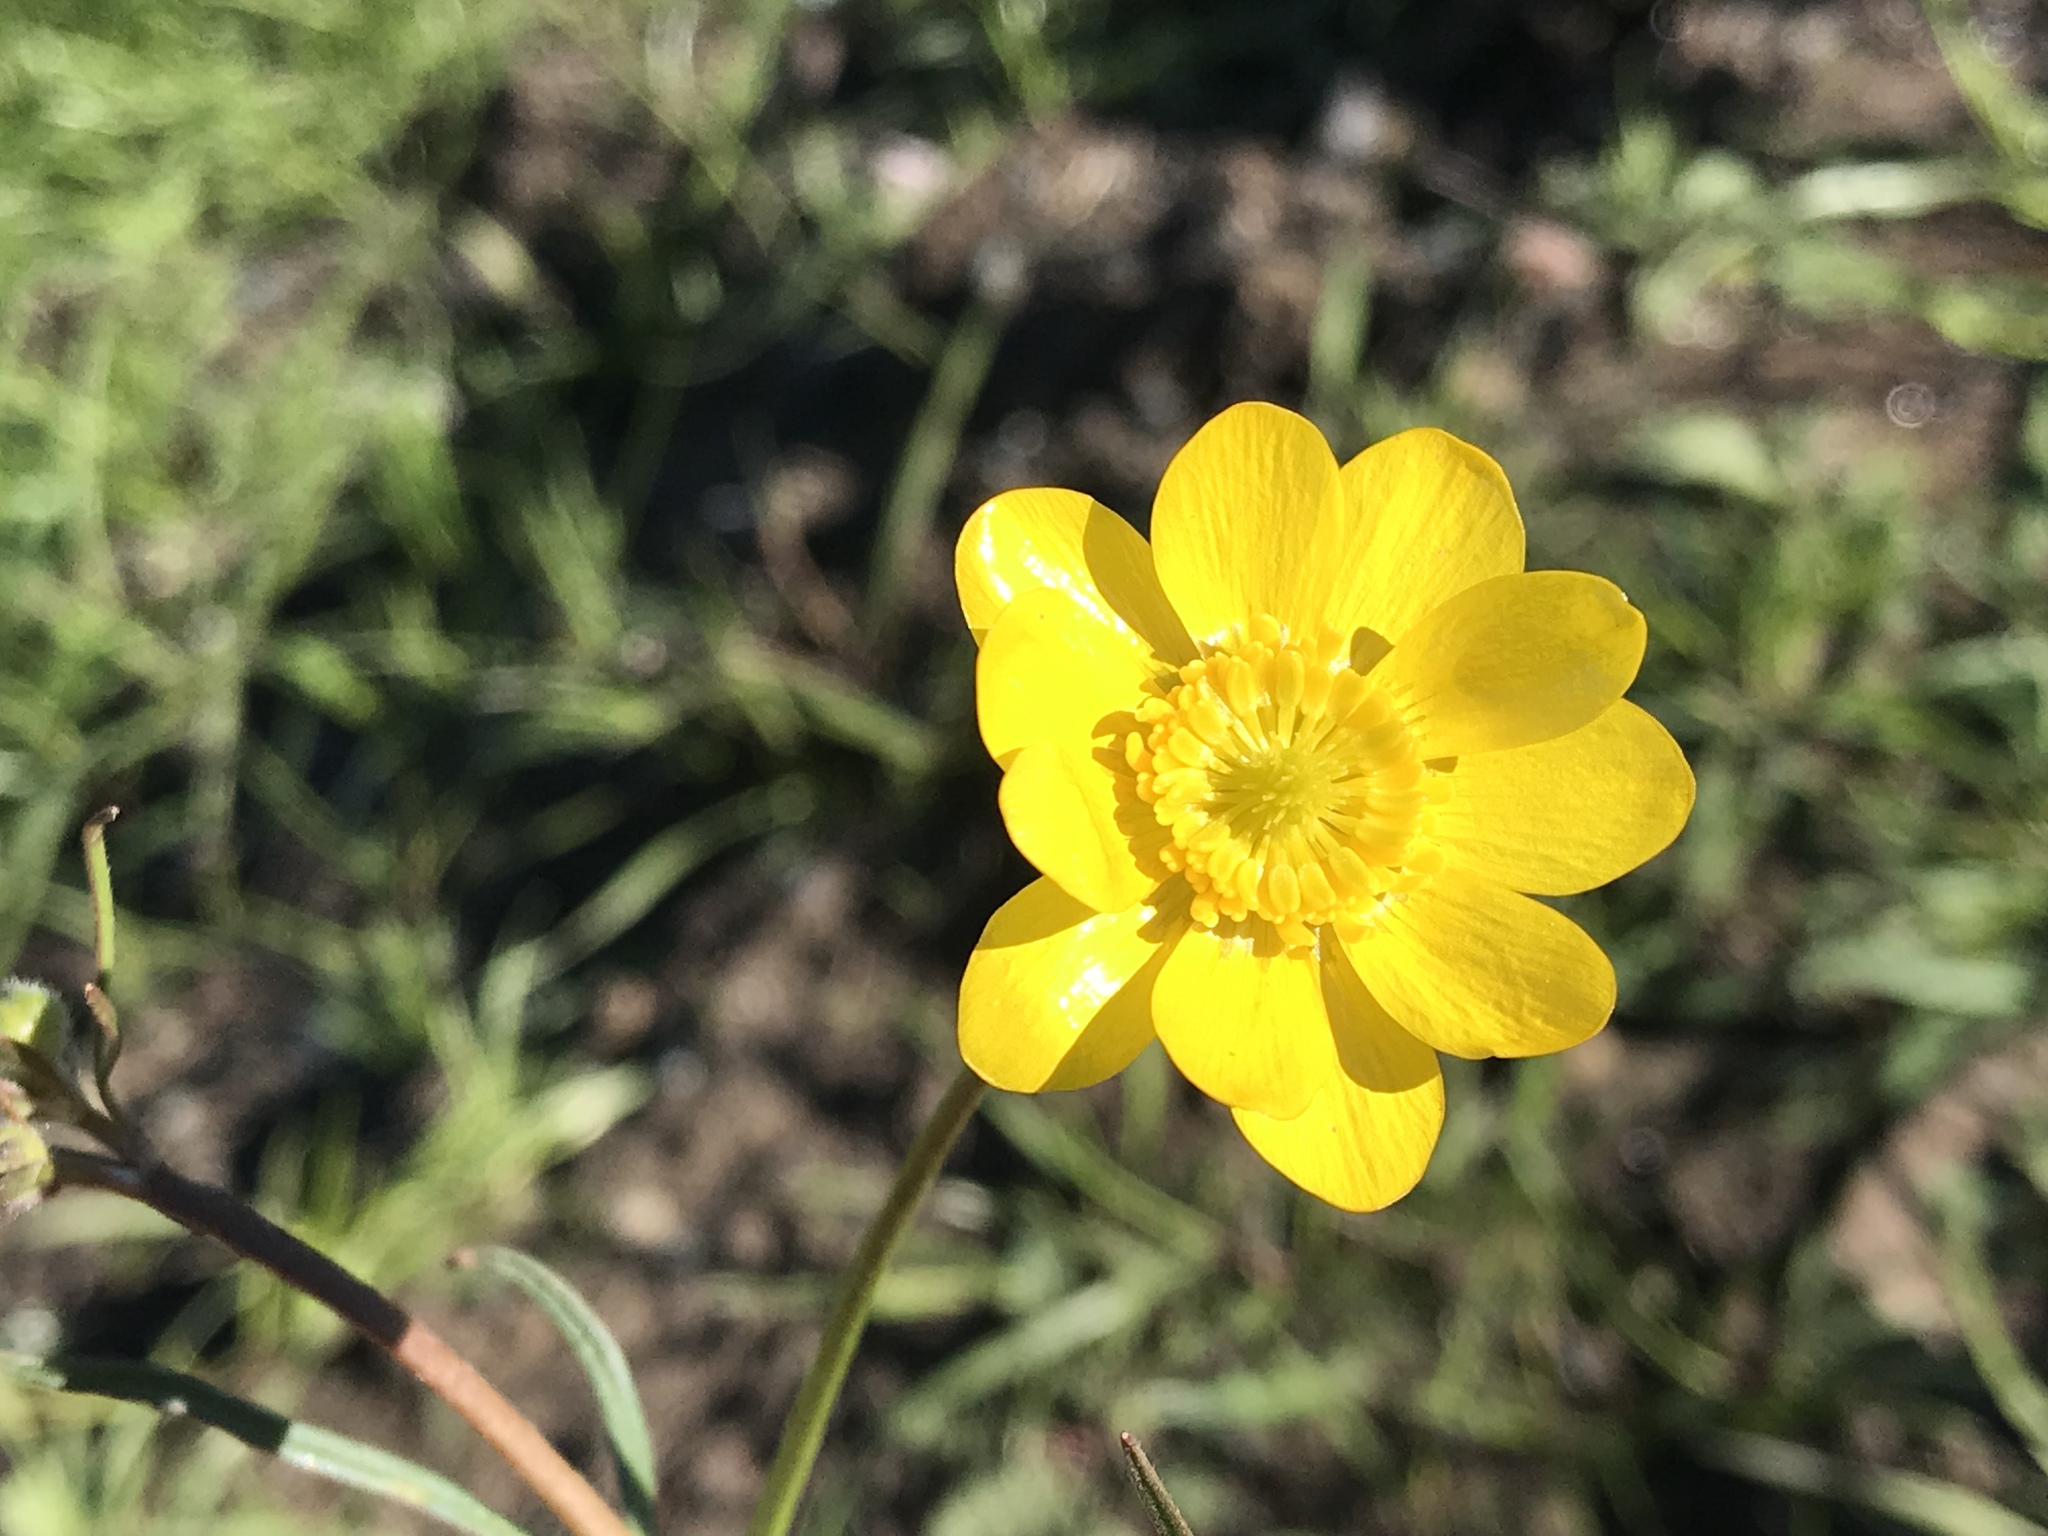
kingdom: Plantae
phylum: Tracheophyta
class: Magnoliopsida
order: Ranunculales
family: Ranunculaceae
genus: Ranunculus
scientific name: Ranunculus californicus
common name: California buttercup
